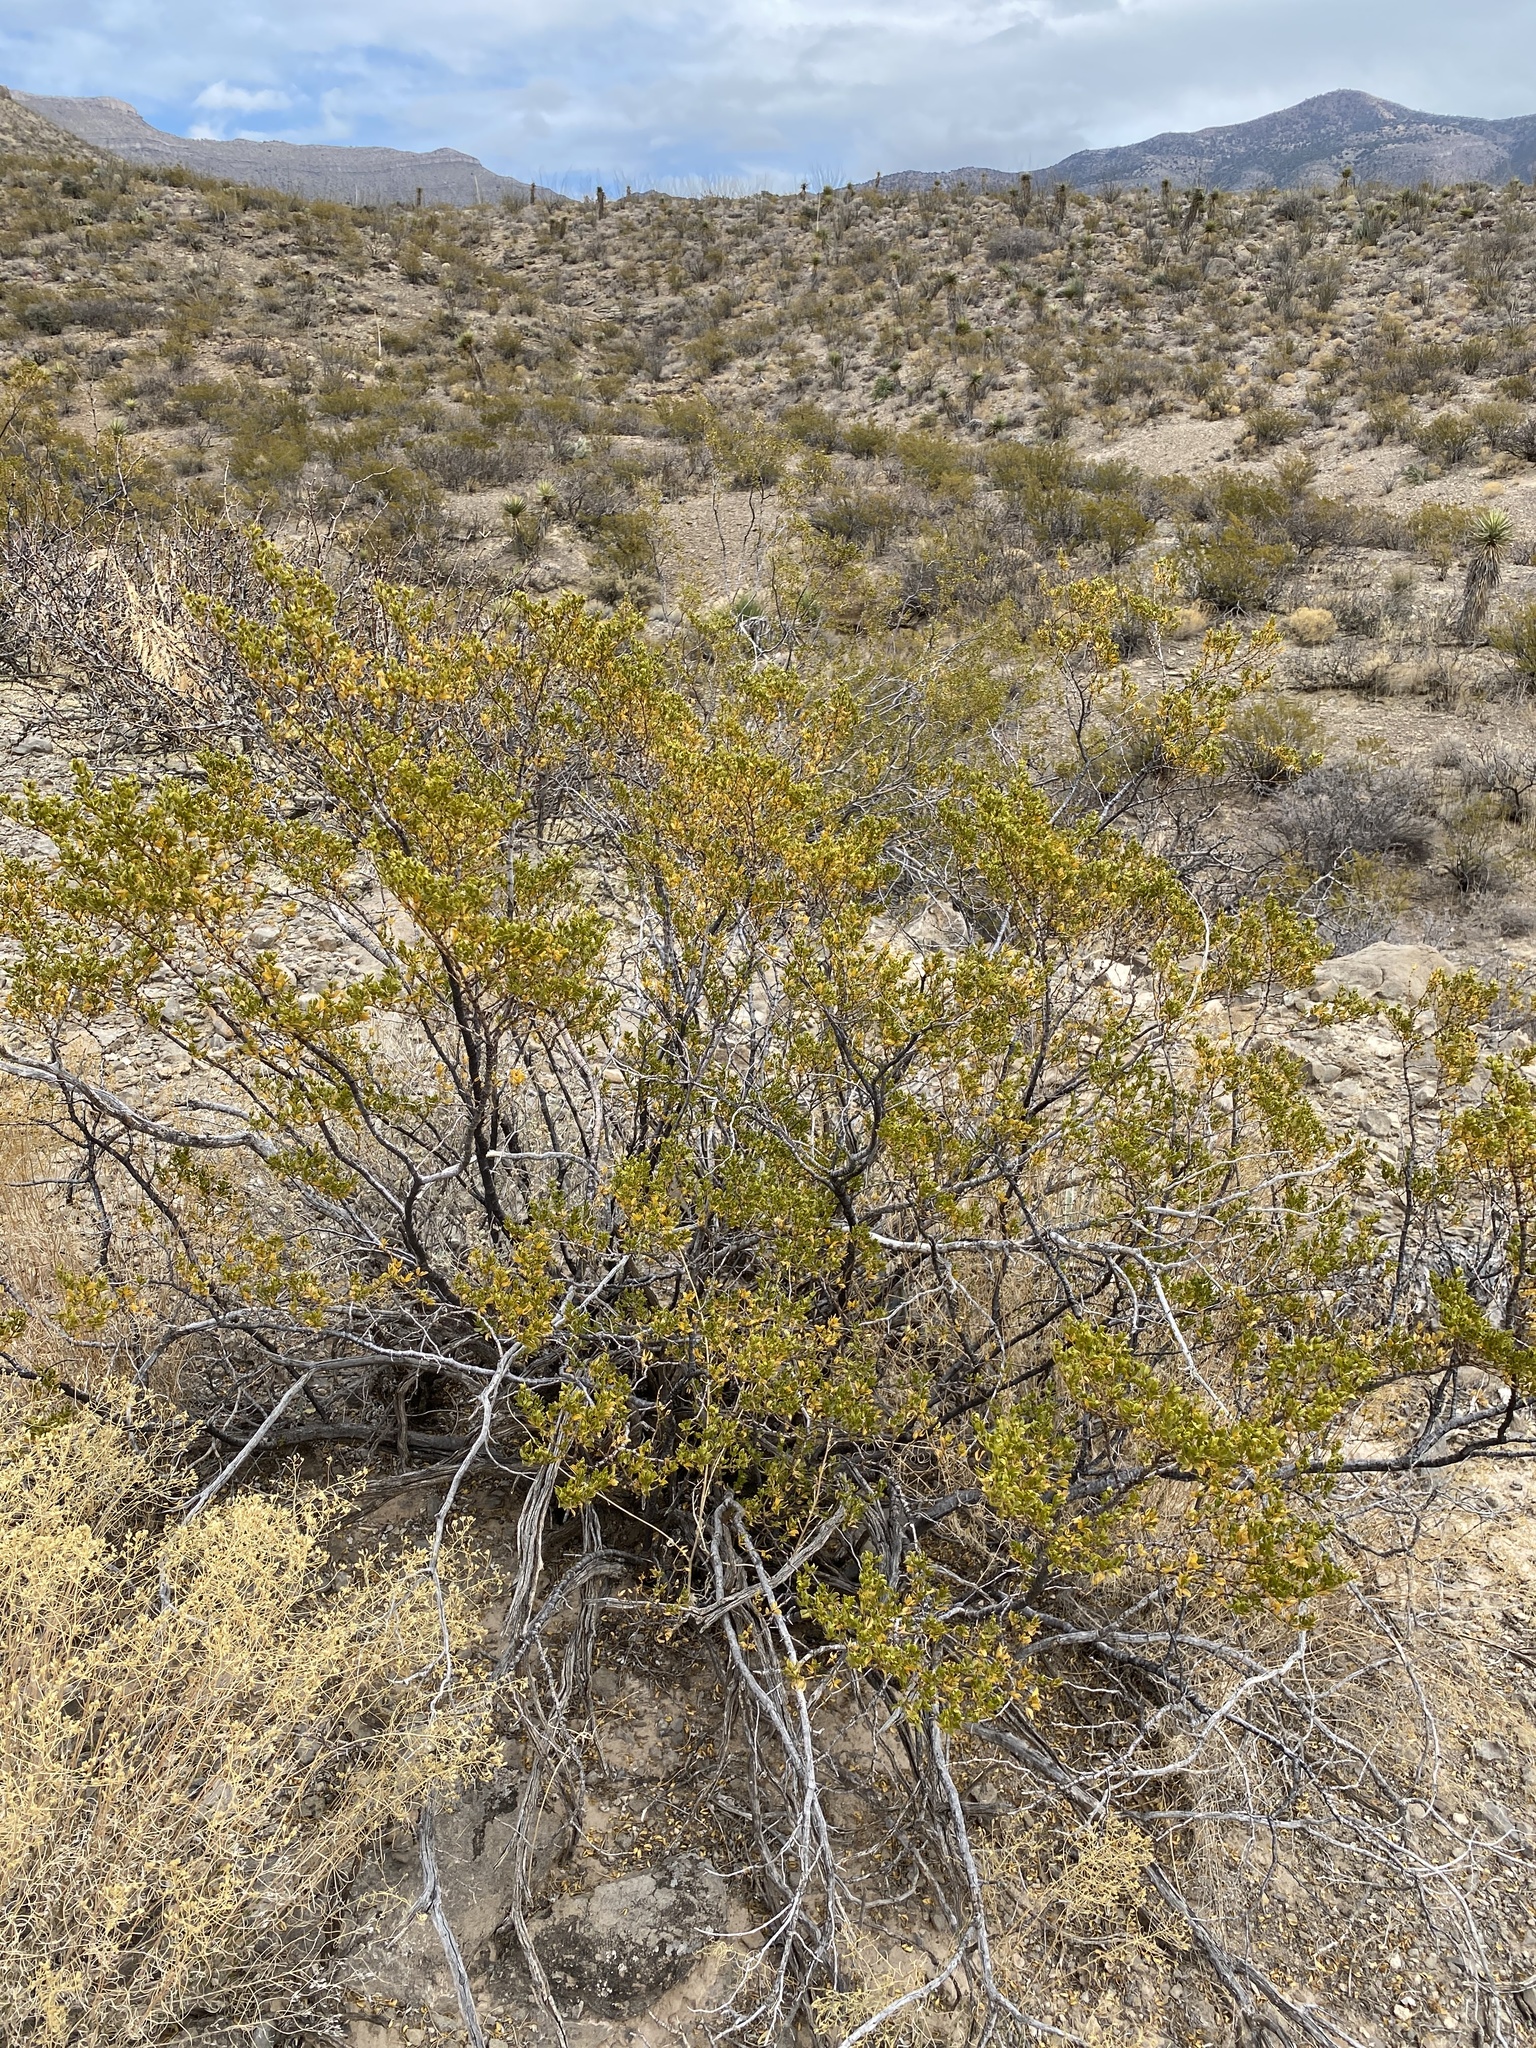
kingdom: Plantae
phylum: Tracheophyta
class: Magnoliopsida
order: Zygophyllales
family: Zygophyllaceae
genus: Larrea
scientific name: Larrea tridentata
